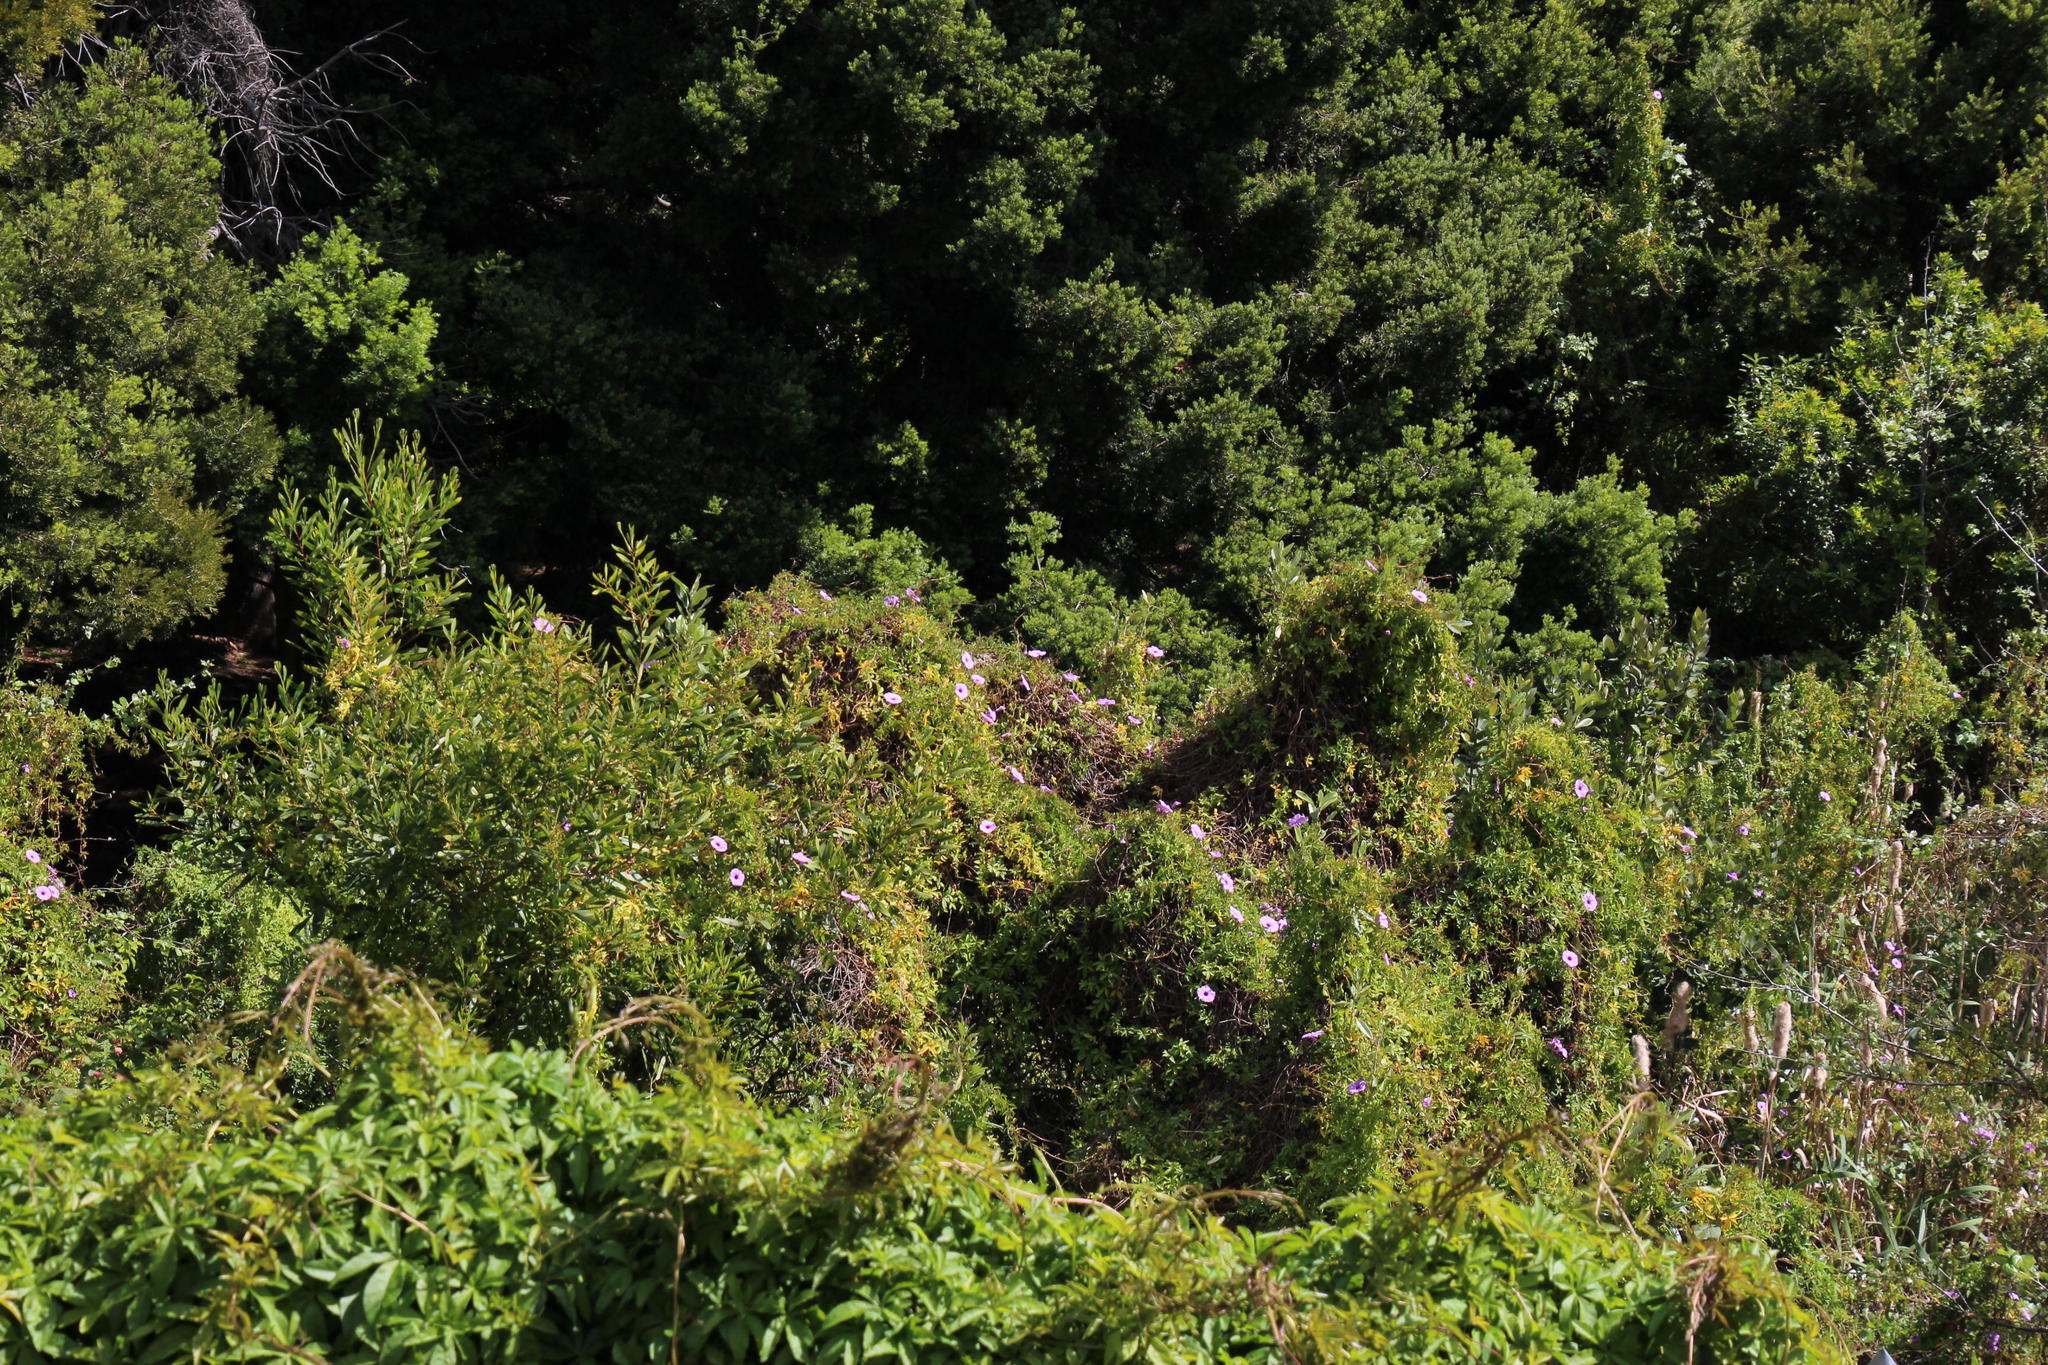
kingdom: Plantae
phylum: Tracheophyta
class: Magnoliopsida
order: Solanales
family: Convolvulaceae
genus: Ipomoea
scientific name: Ipomoea cairica
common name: Mile a minute vine
